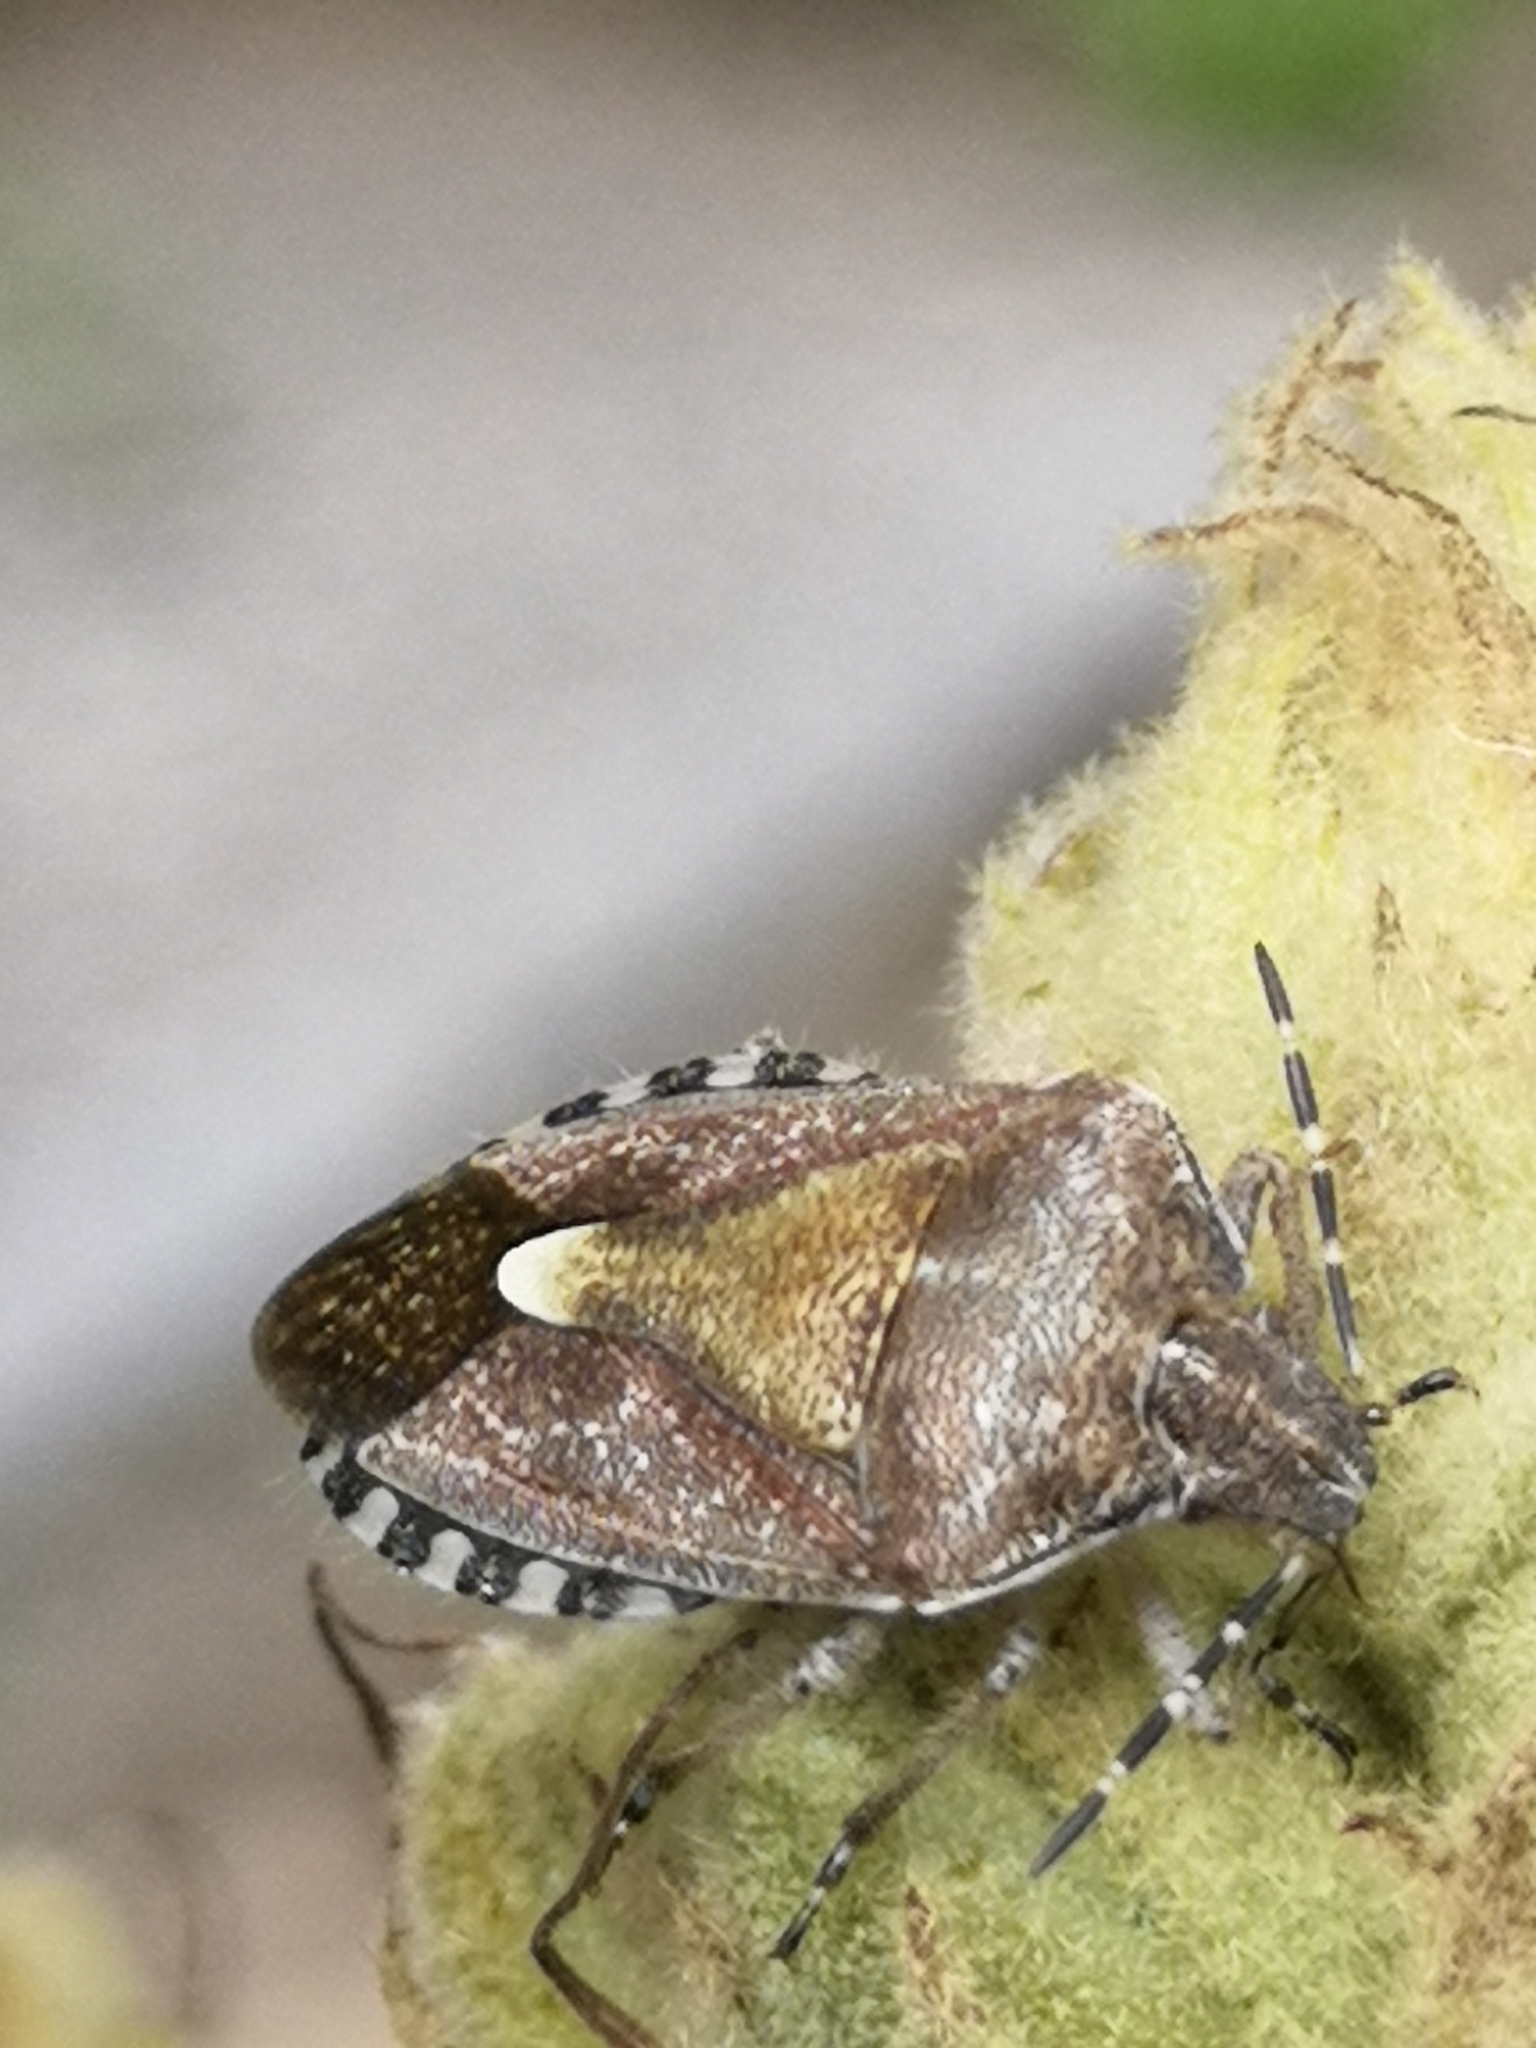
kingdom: Animalia
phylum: Arthropoda
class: Insecta
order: Hemiptera
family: Pentatomidae
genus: Dolycoris
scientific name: Dolycoris baccarum
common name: Sloe bug
